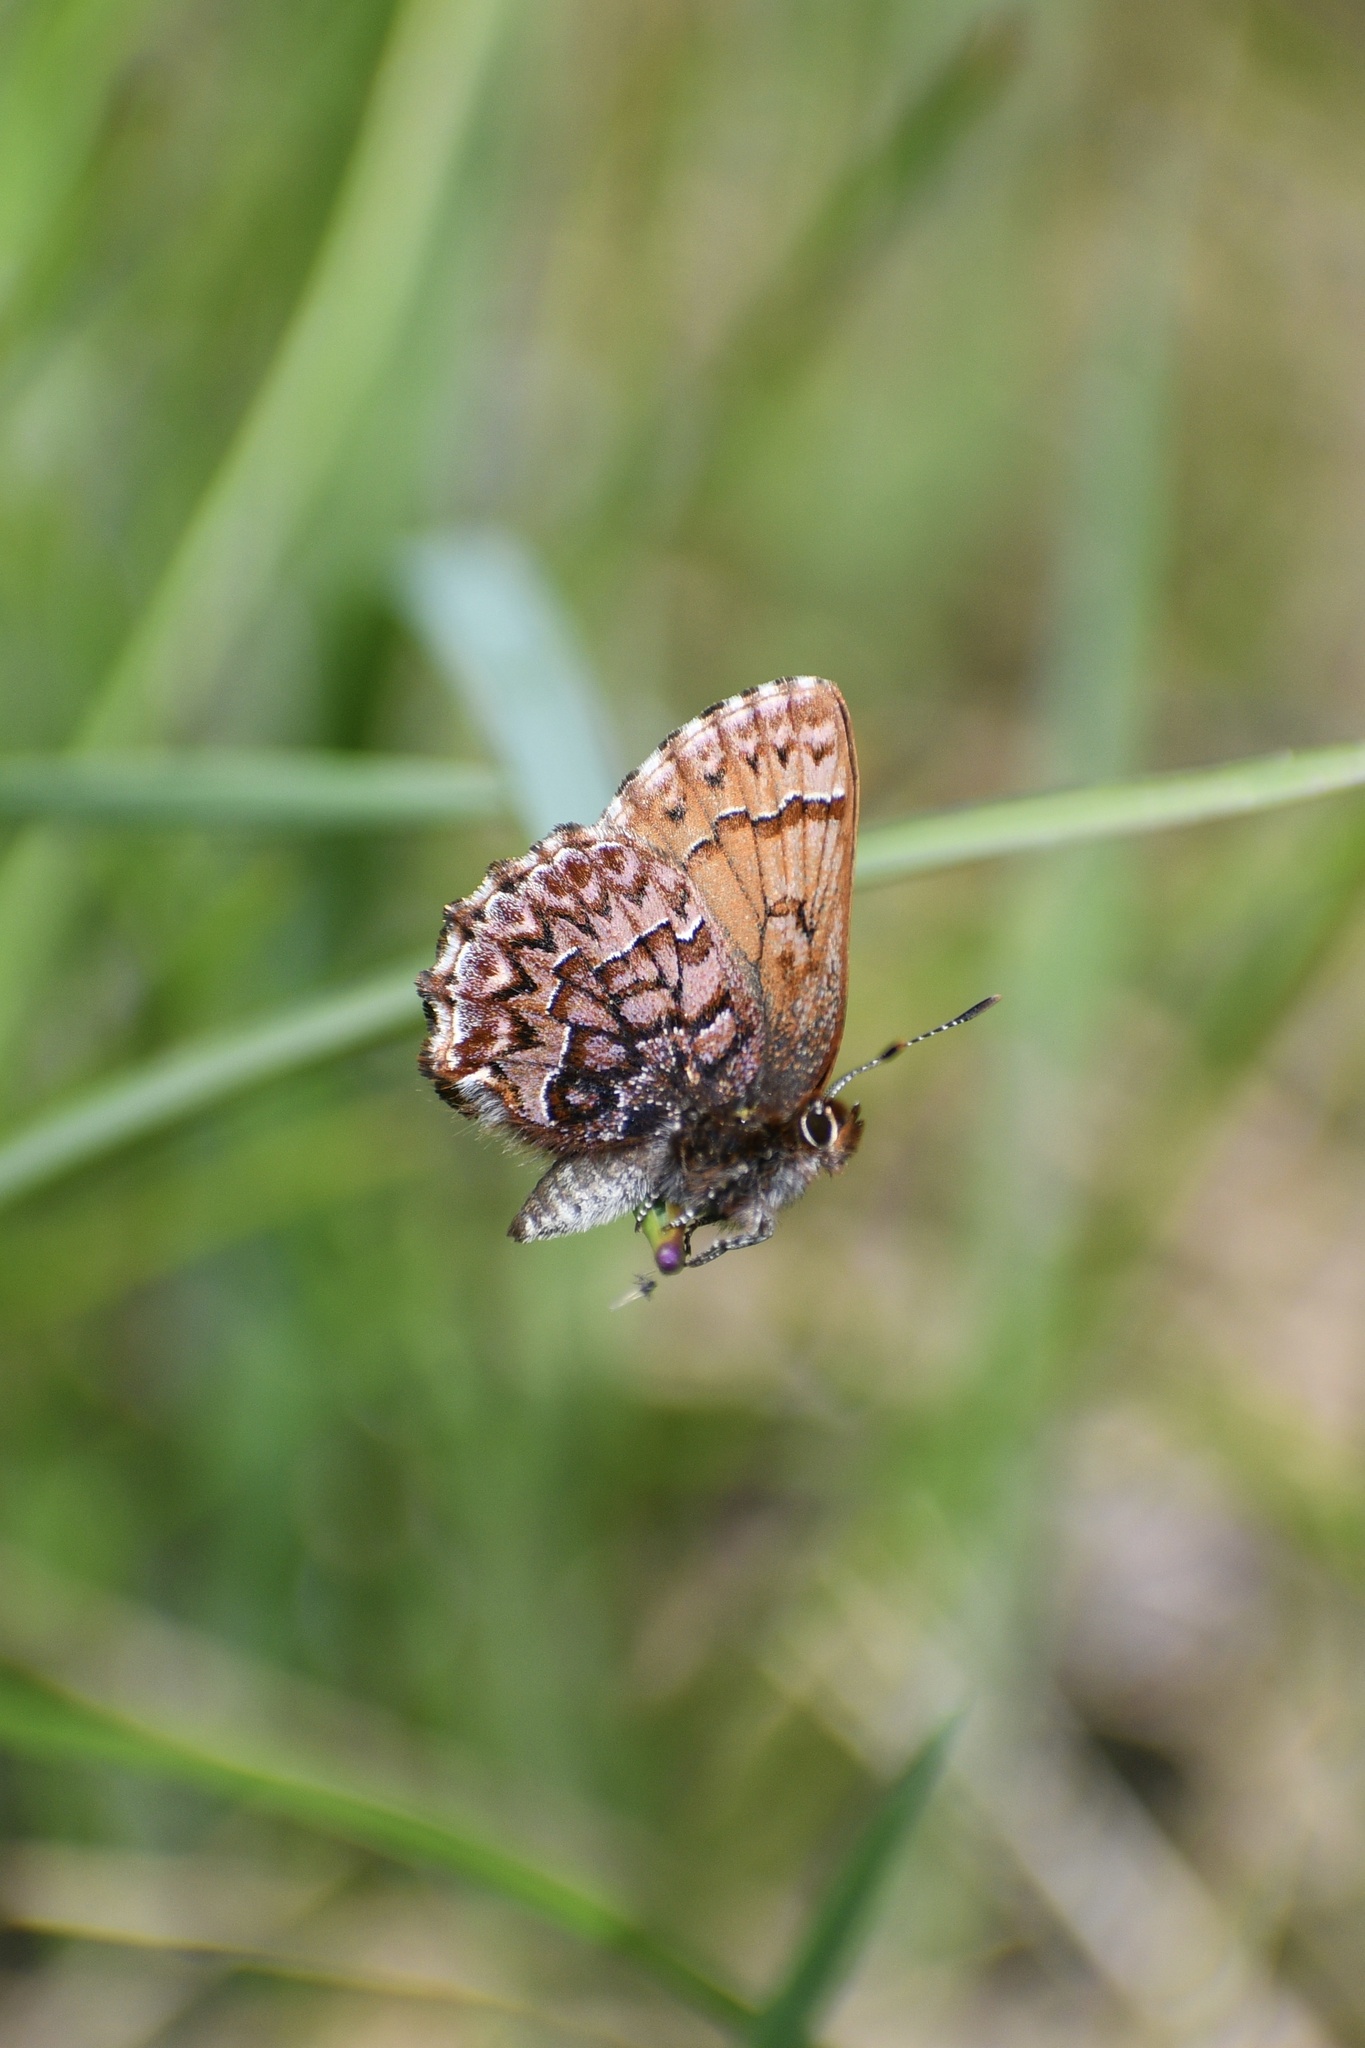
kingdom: Animalia
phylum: Arthropoda
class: Insecta
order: Lepidoptera
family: Lycaenidae
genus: Incisalia
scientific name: Incisalia eryphon
